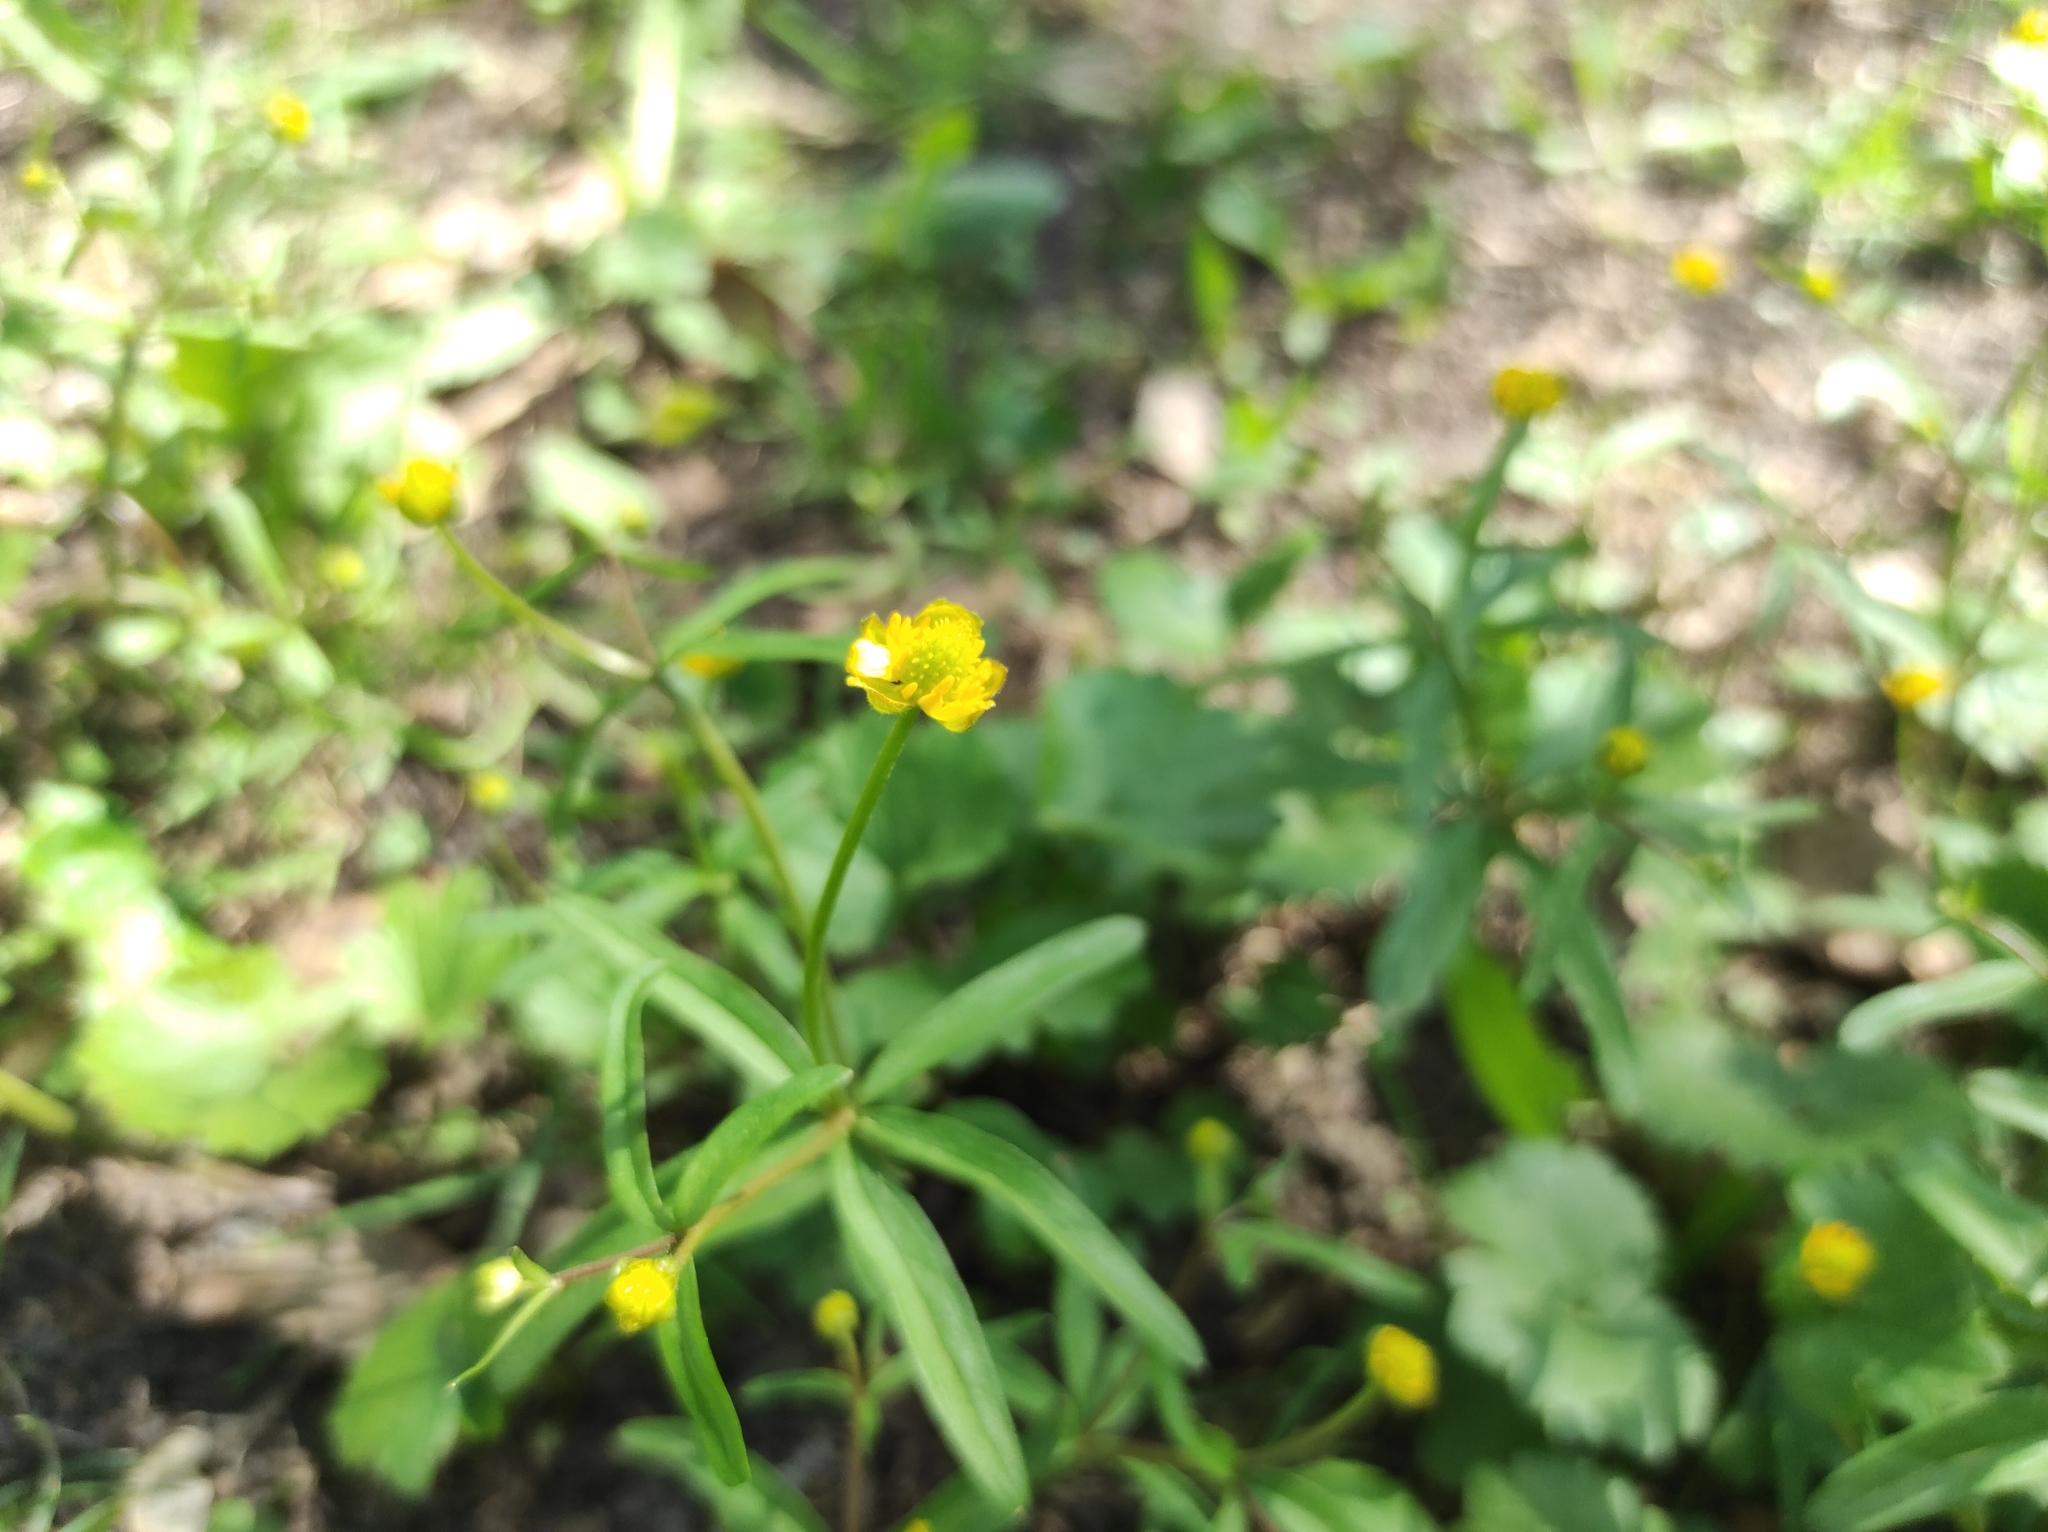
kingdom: Plantae
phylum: Tracheophyta
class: Magnoliopsida
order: Ranunculales
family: Ranunculaceae
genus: Ranunculus
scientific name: Ranunculus monophyllus
